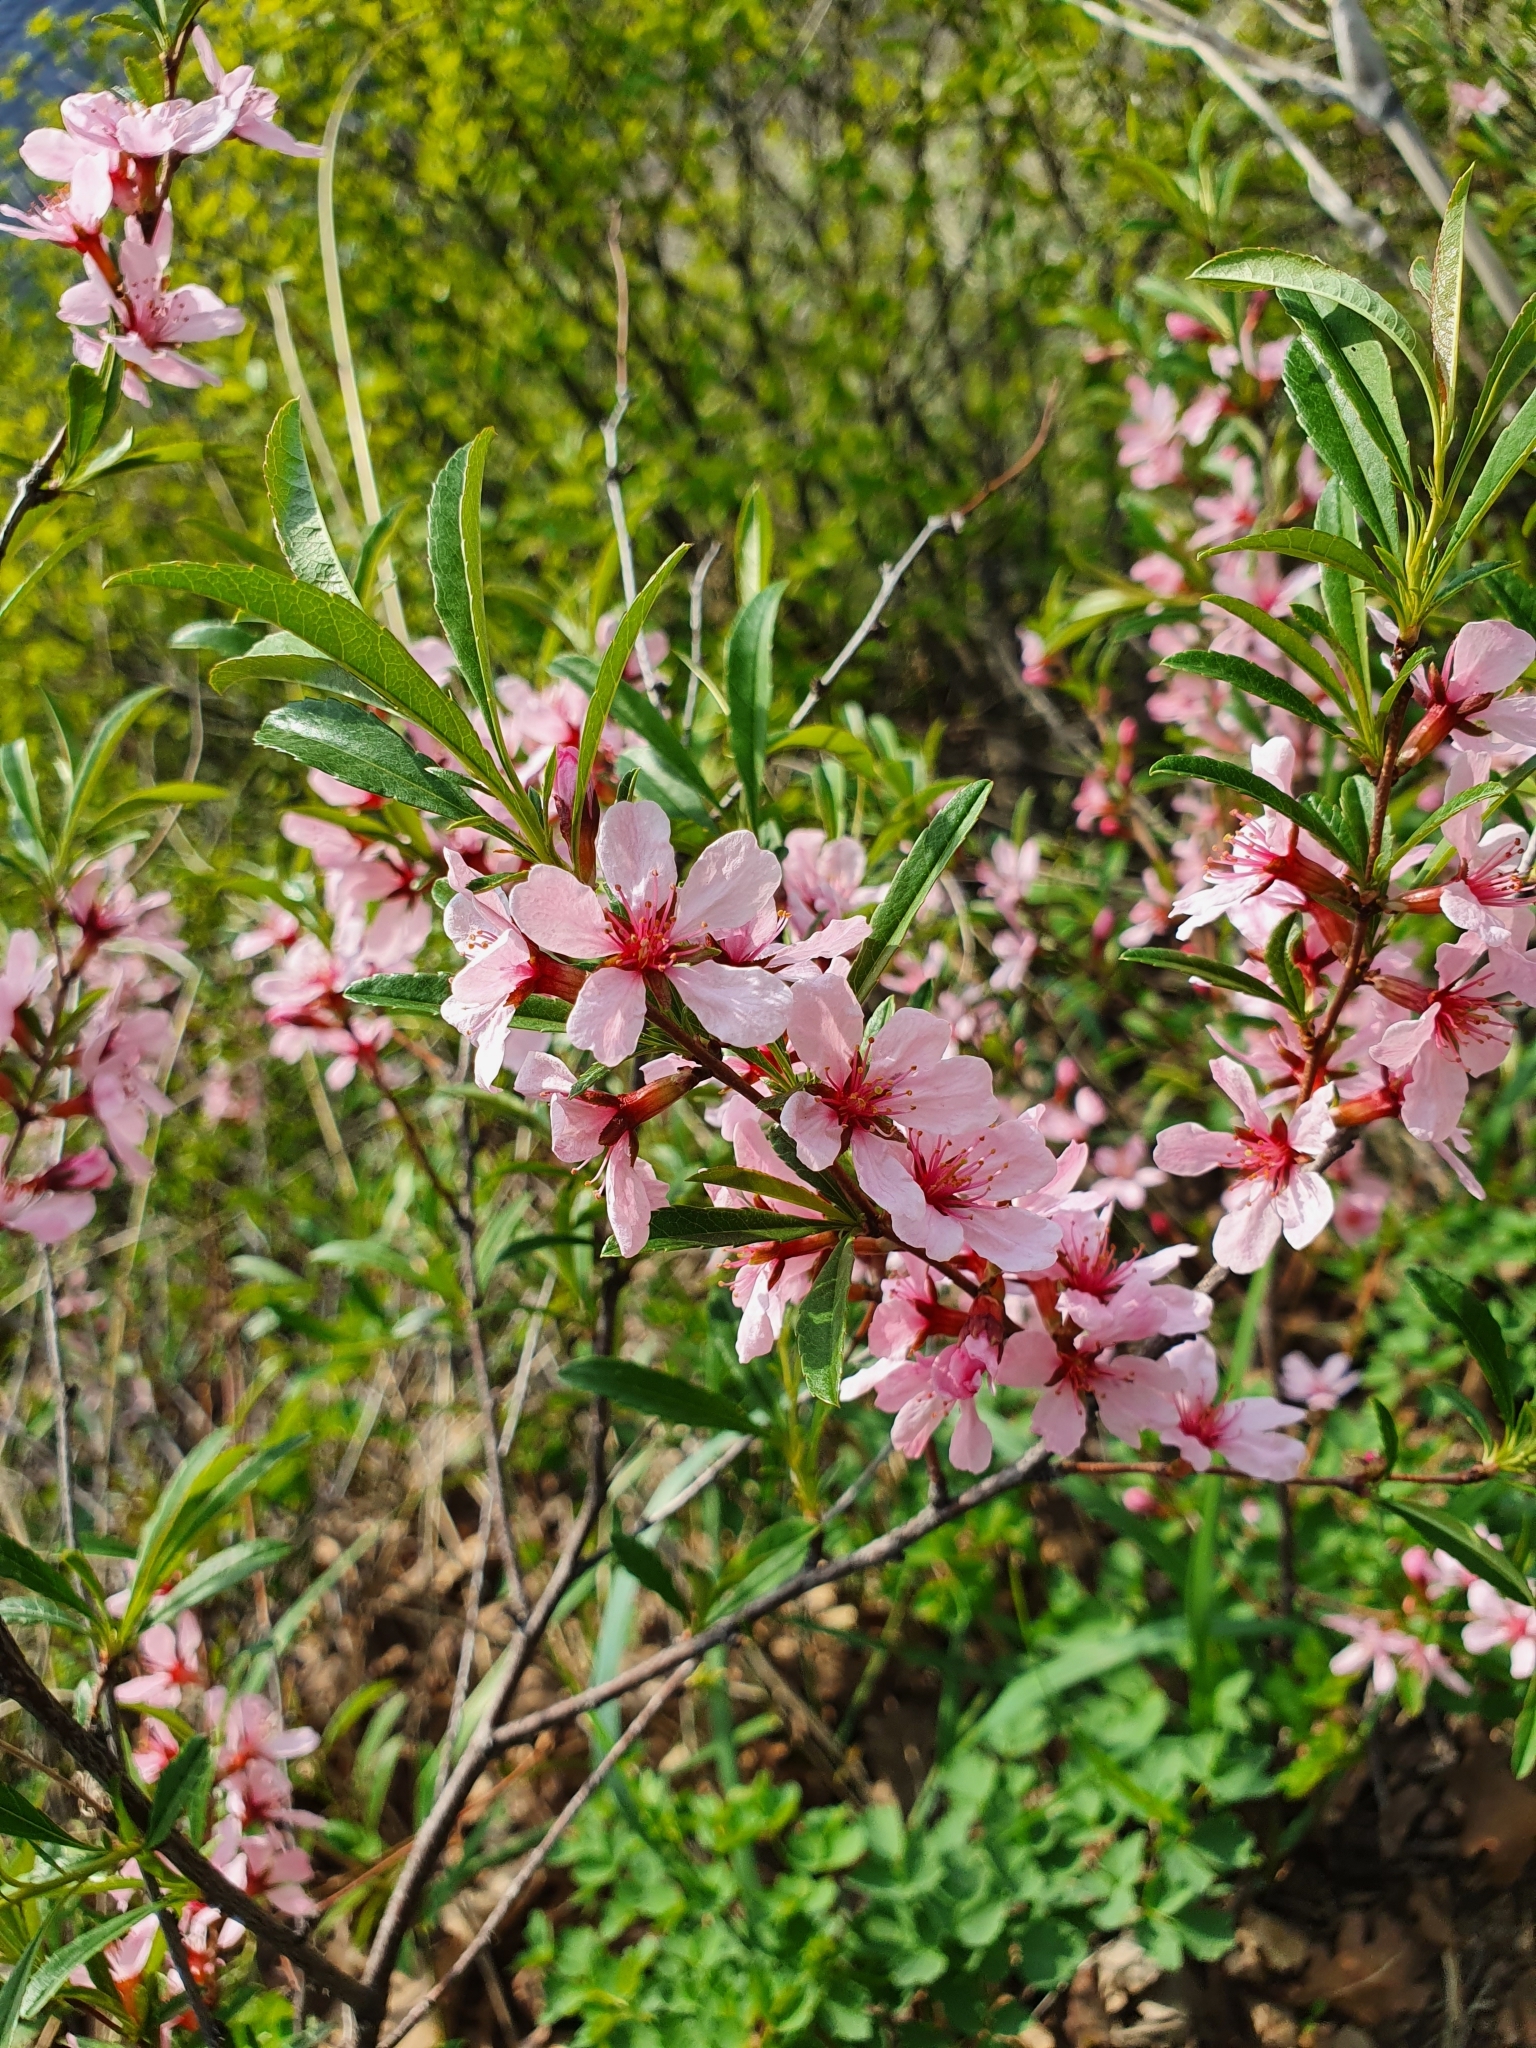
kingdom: Plantae
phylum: Tracheophyta
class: Magnoliopsida
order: Rosales
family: Rosaceae
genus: Prunus
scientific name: Prunus tenella
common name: Dwarf russian almond
